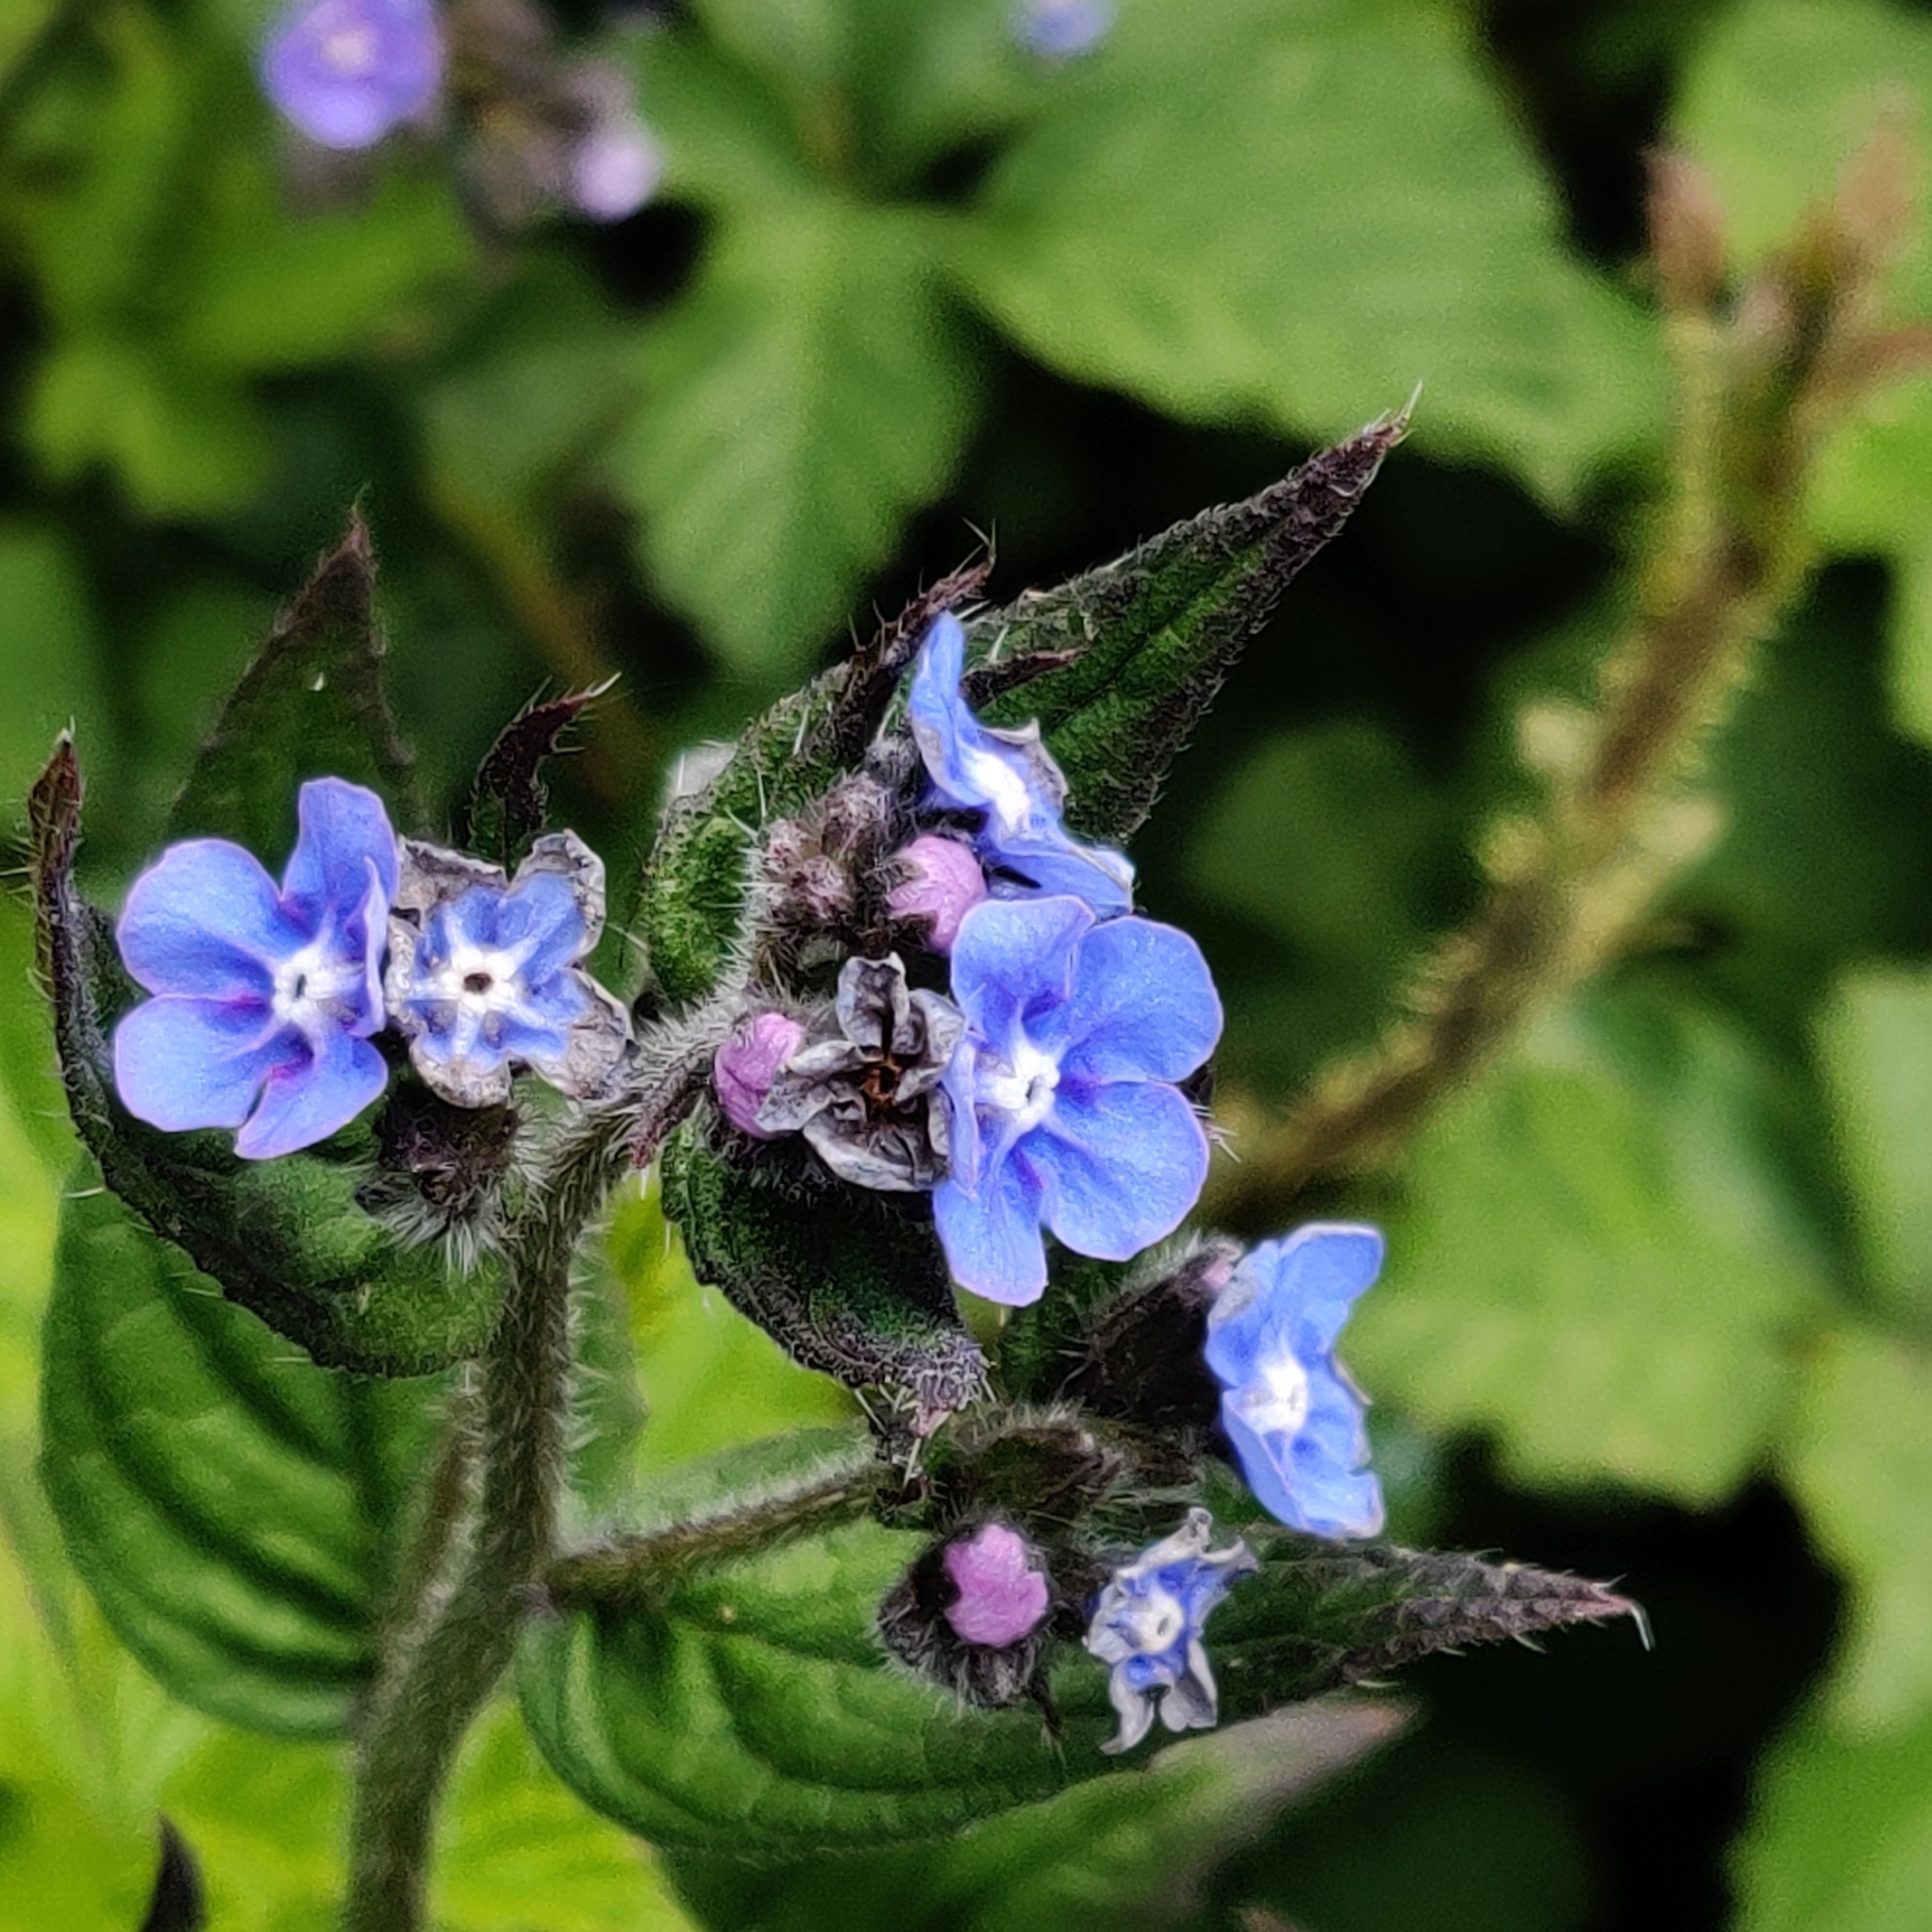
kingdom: Plantae
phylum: Tracheophyta
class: Magnoliopsida
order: Boraginales
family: Boraginaceae
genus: Pentaglottis
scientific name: Pentaglottis sempervirens
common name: Green alkanet
